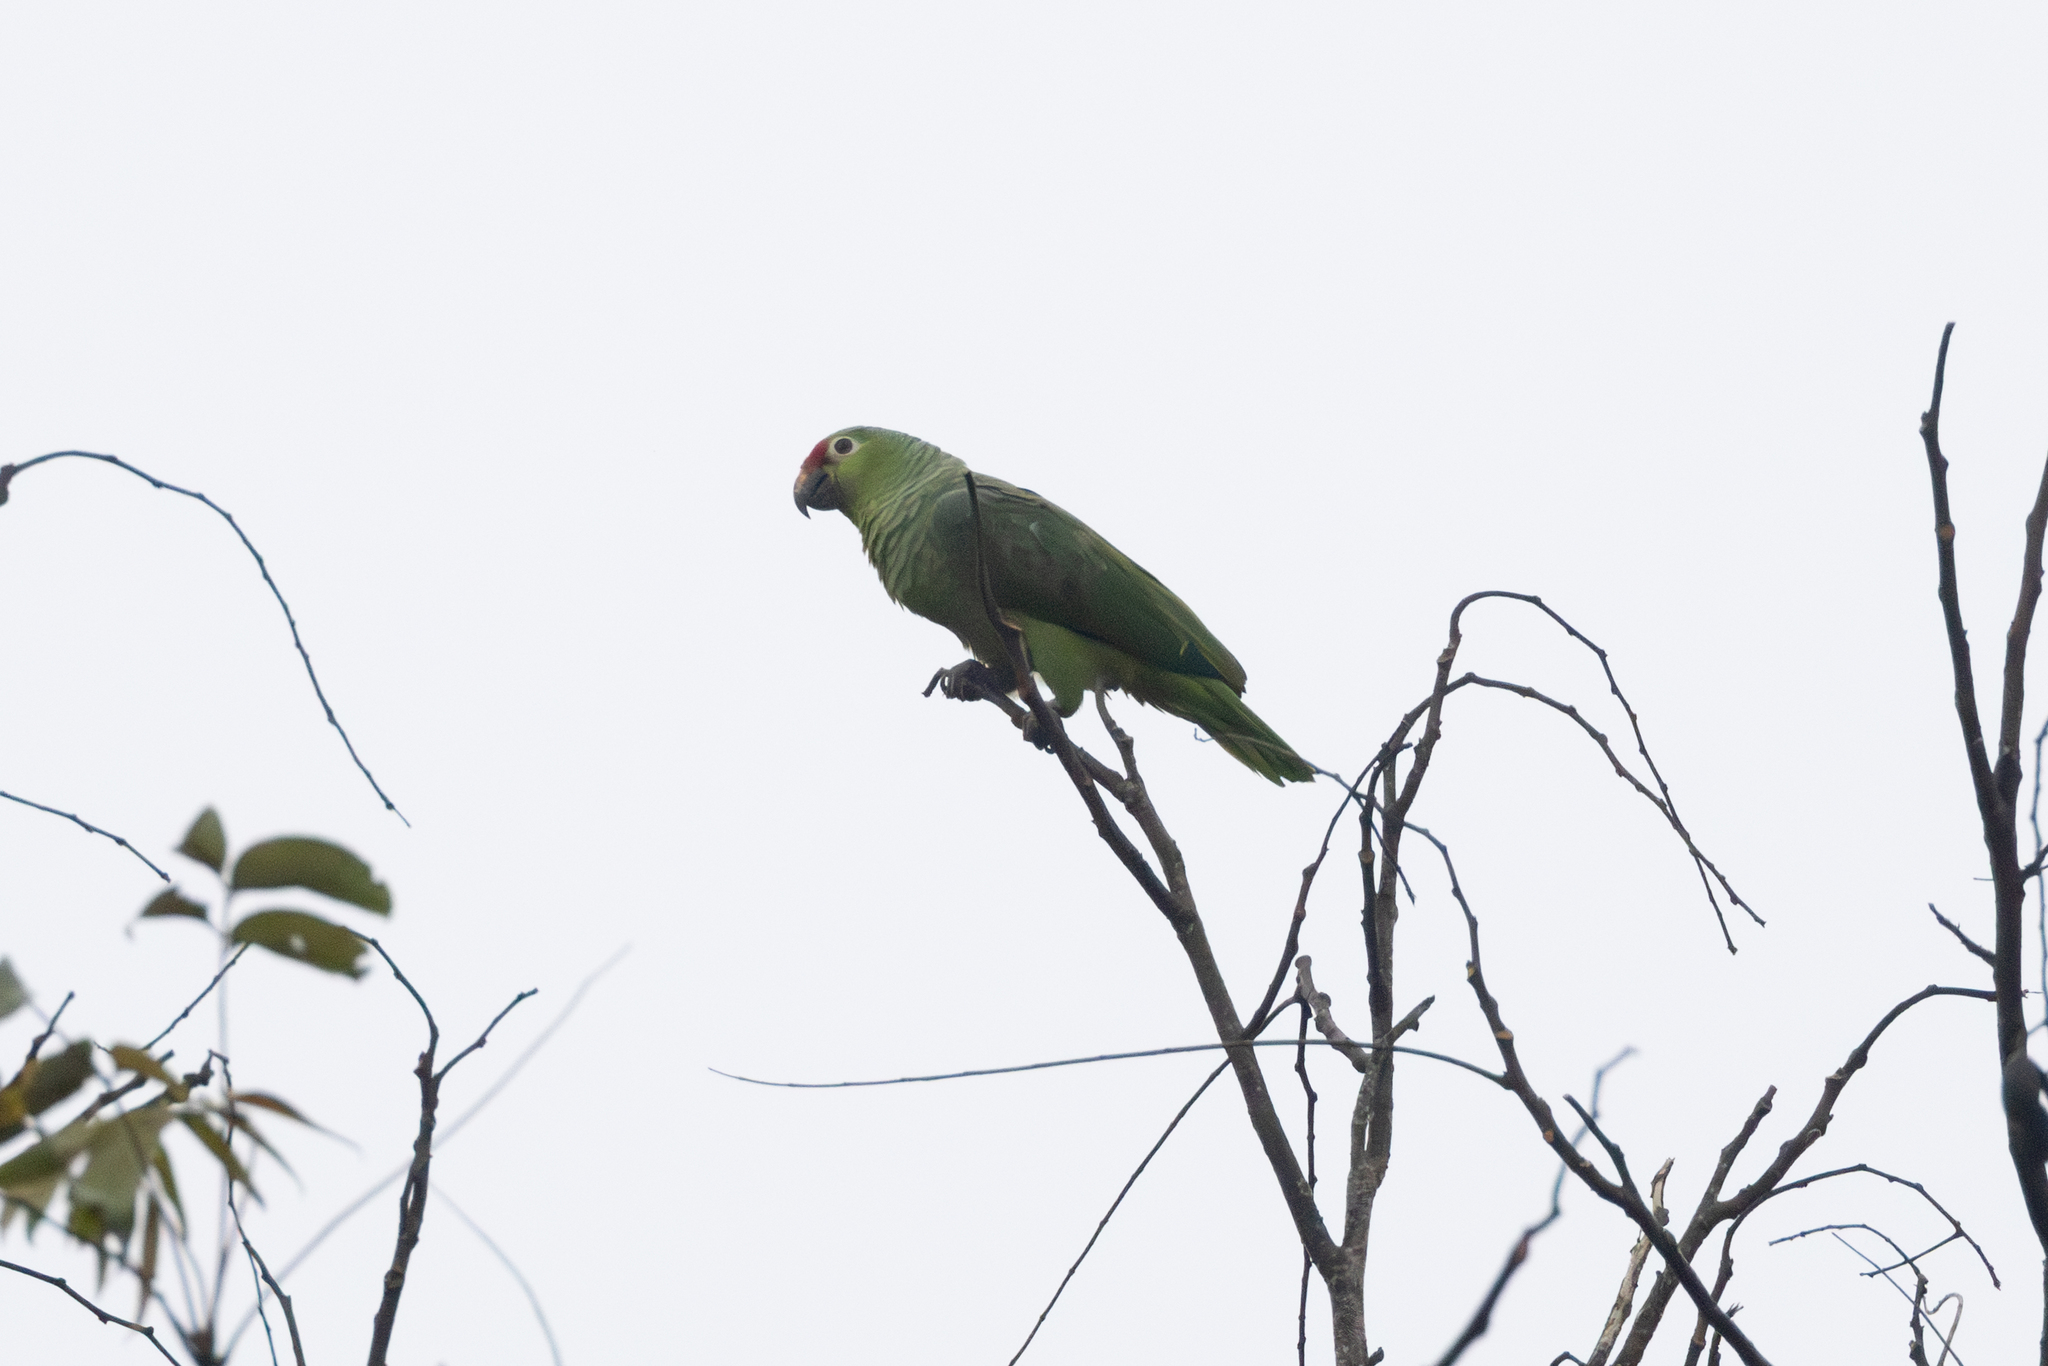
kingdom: Animalia
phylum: Chordata
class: Aves
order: Psittaciformes
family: Psittacidae
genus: Amazona
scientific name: Amazona autumnalis
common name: Red-lored amazon
